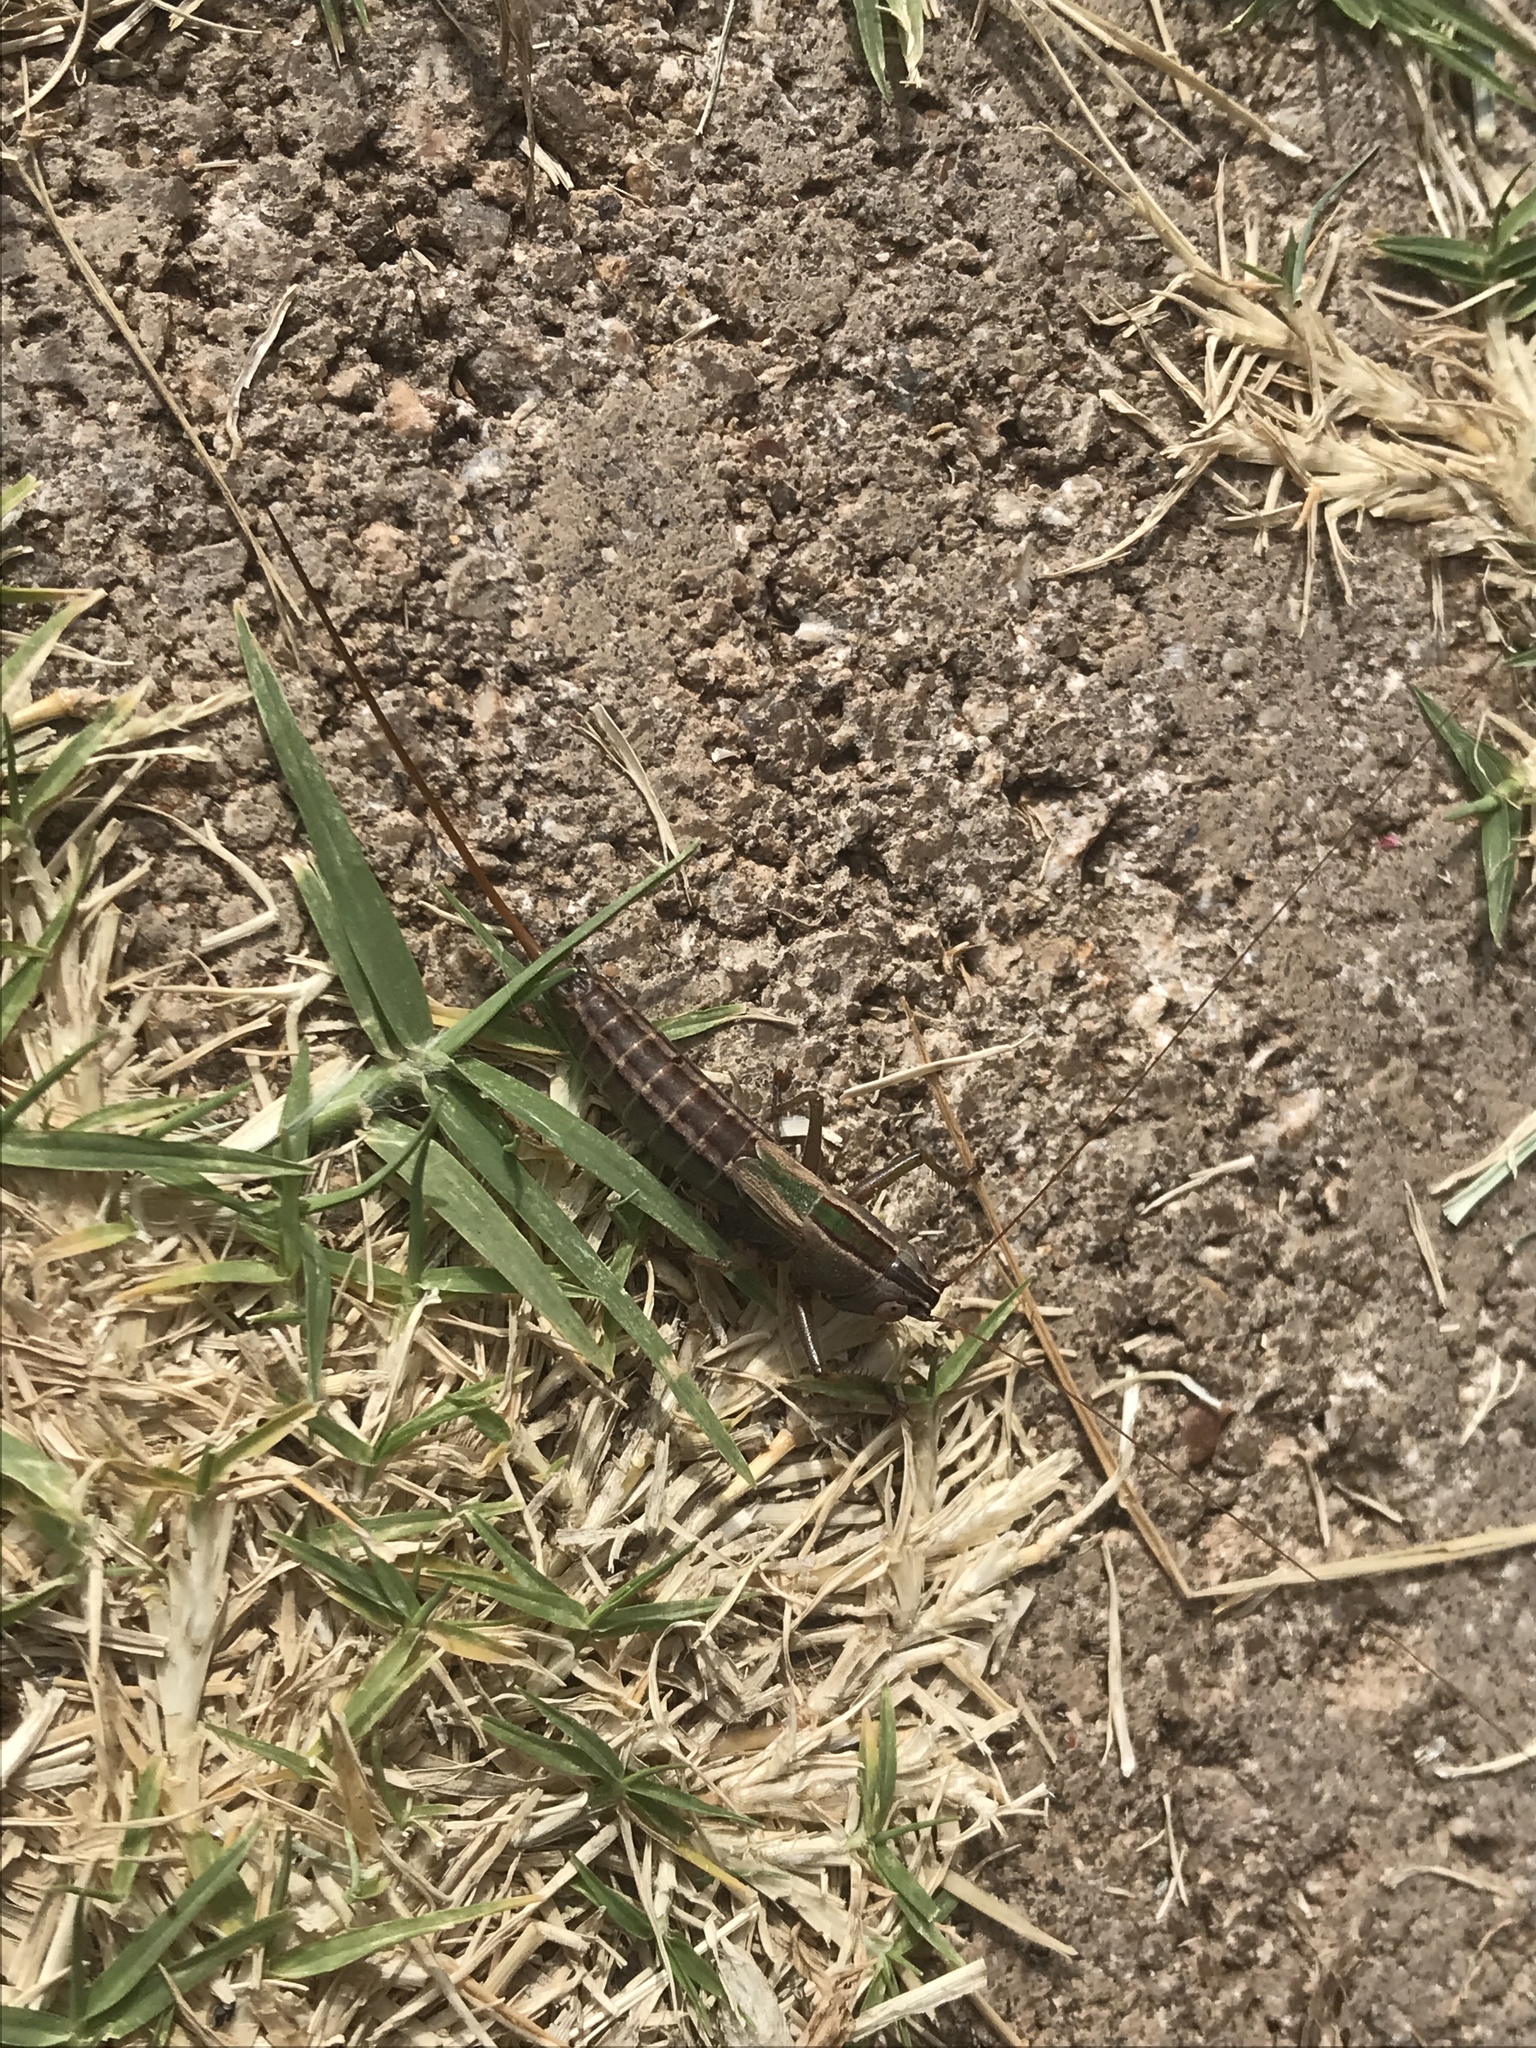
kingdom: Animalia
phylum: Arthropoda
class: Insecta
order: Orthoptera
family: Tettigoniidae
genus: Conocephalus
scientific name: Conocephalus strictus
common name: Straight-lanced katydid
